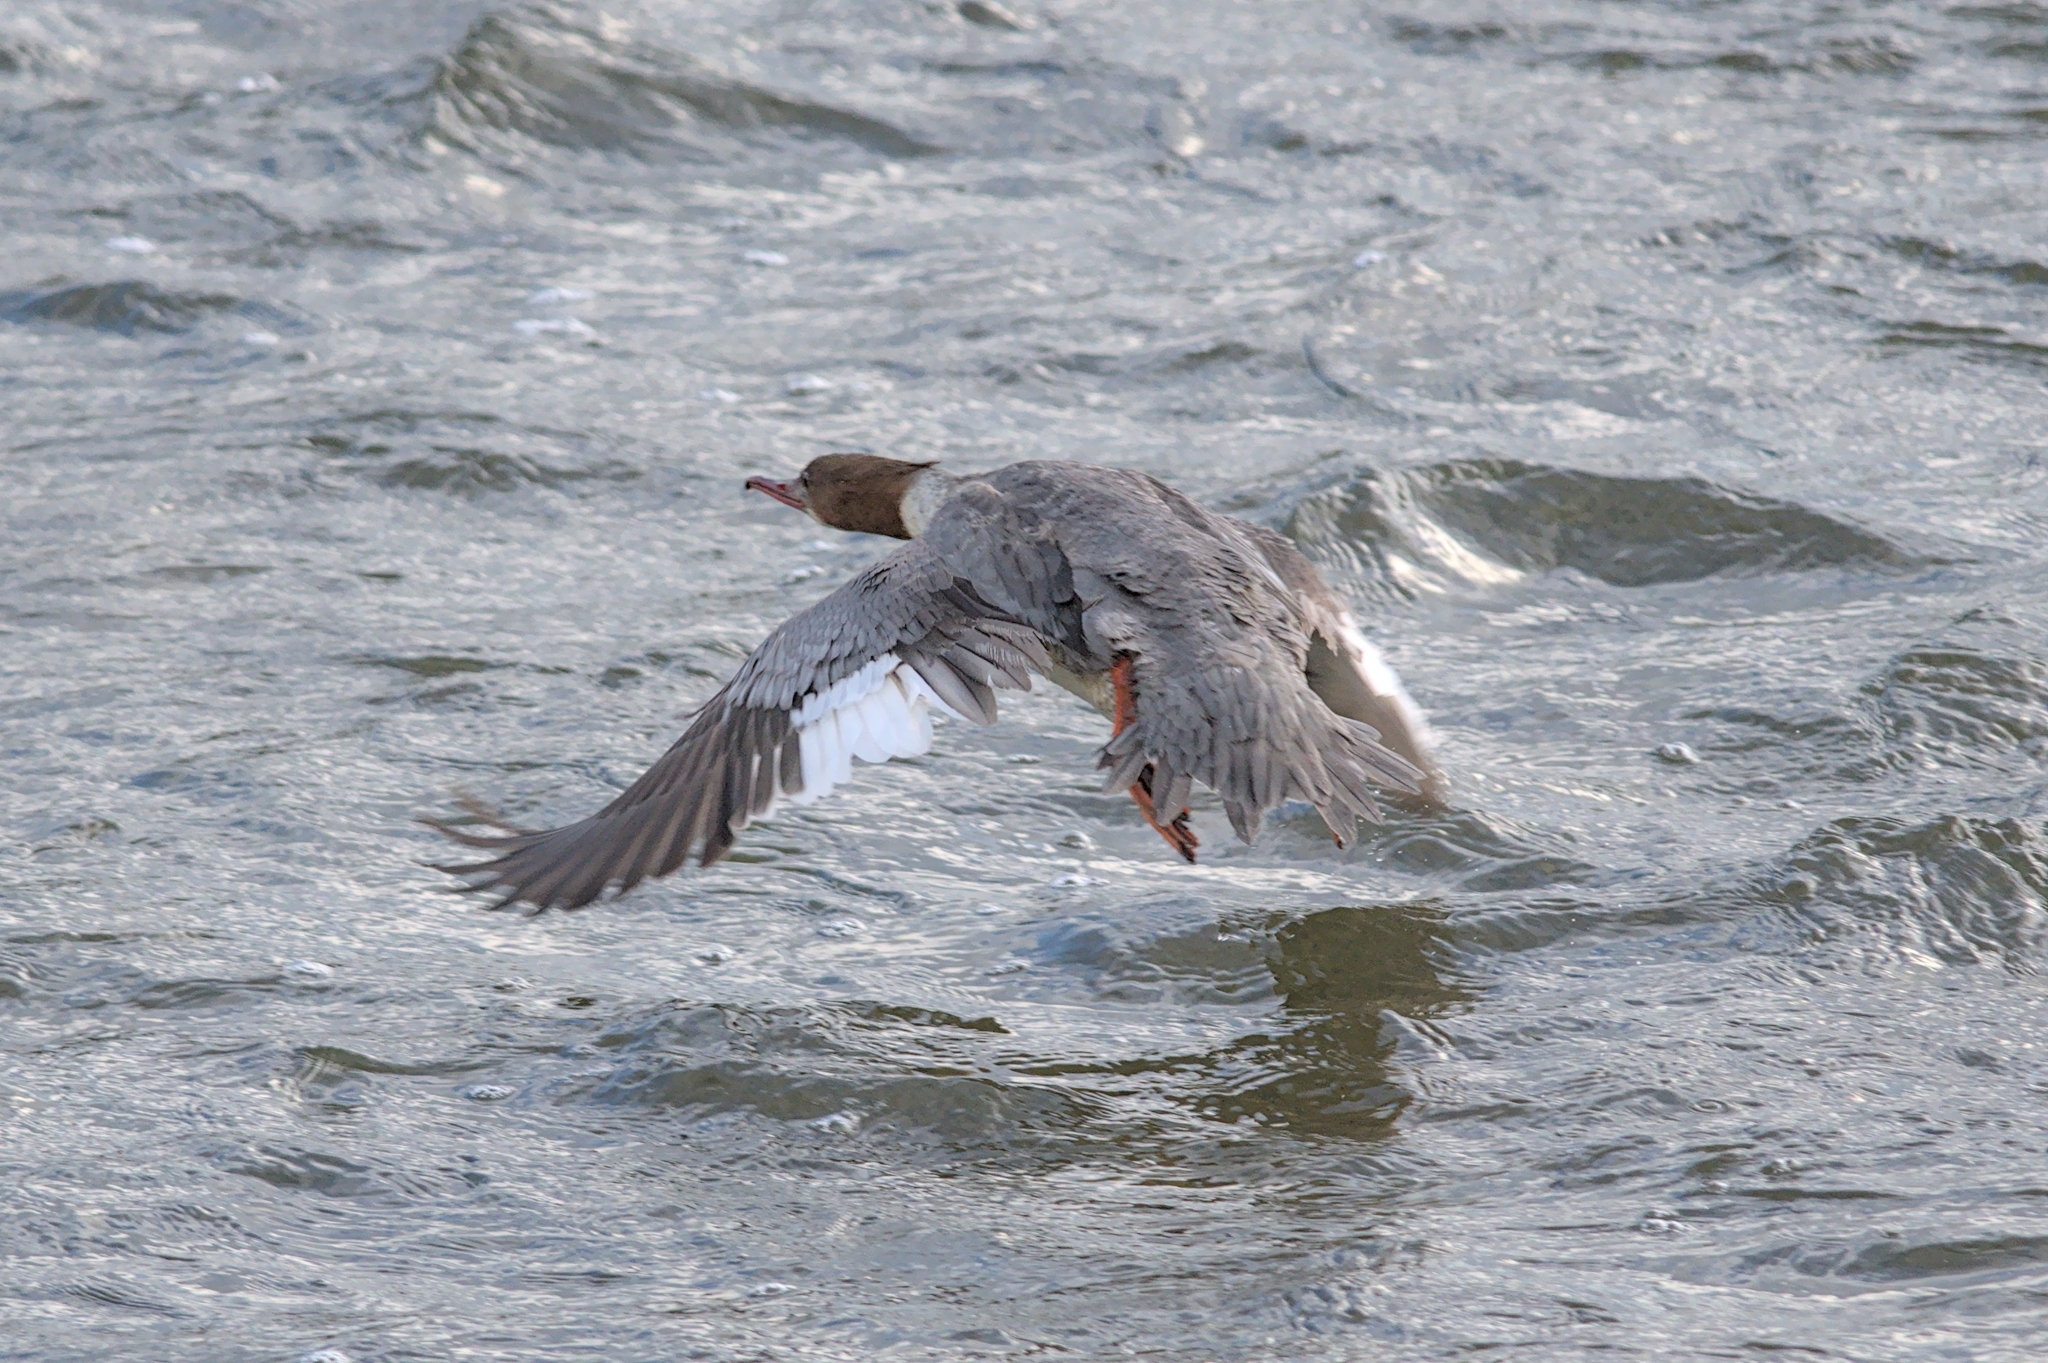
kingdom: Animalia
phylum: Chordata
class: Aves
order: Anseriformes
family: Anatidae
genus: Mergus
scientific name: Mergus merganser
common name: Common merganser
